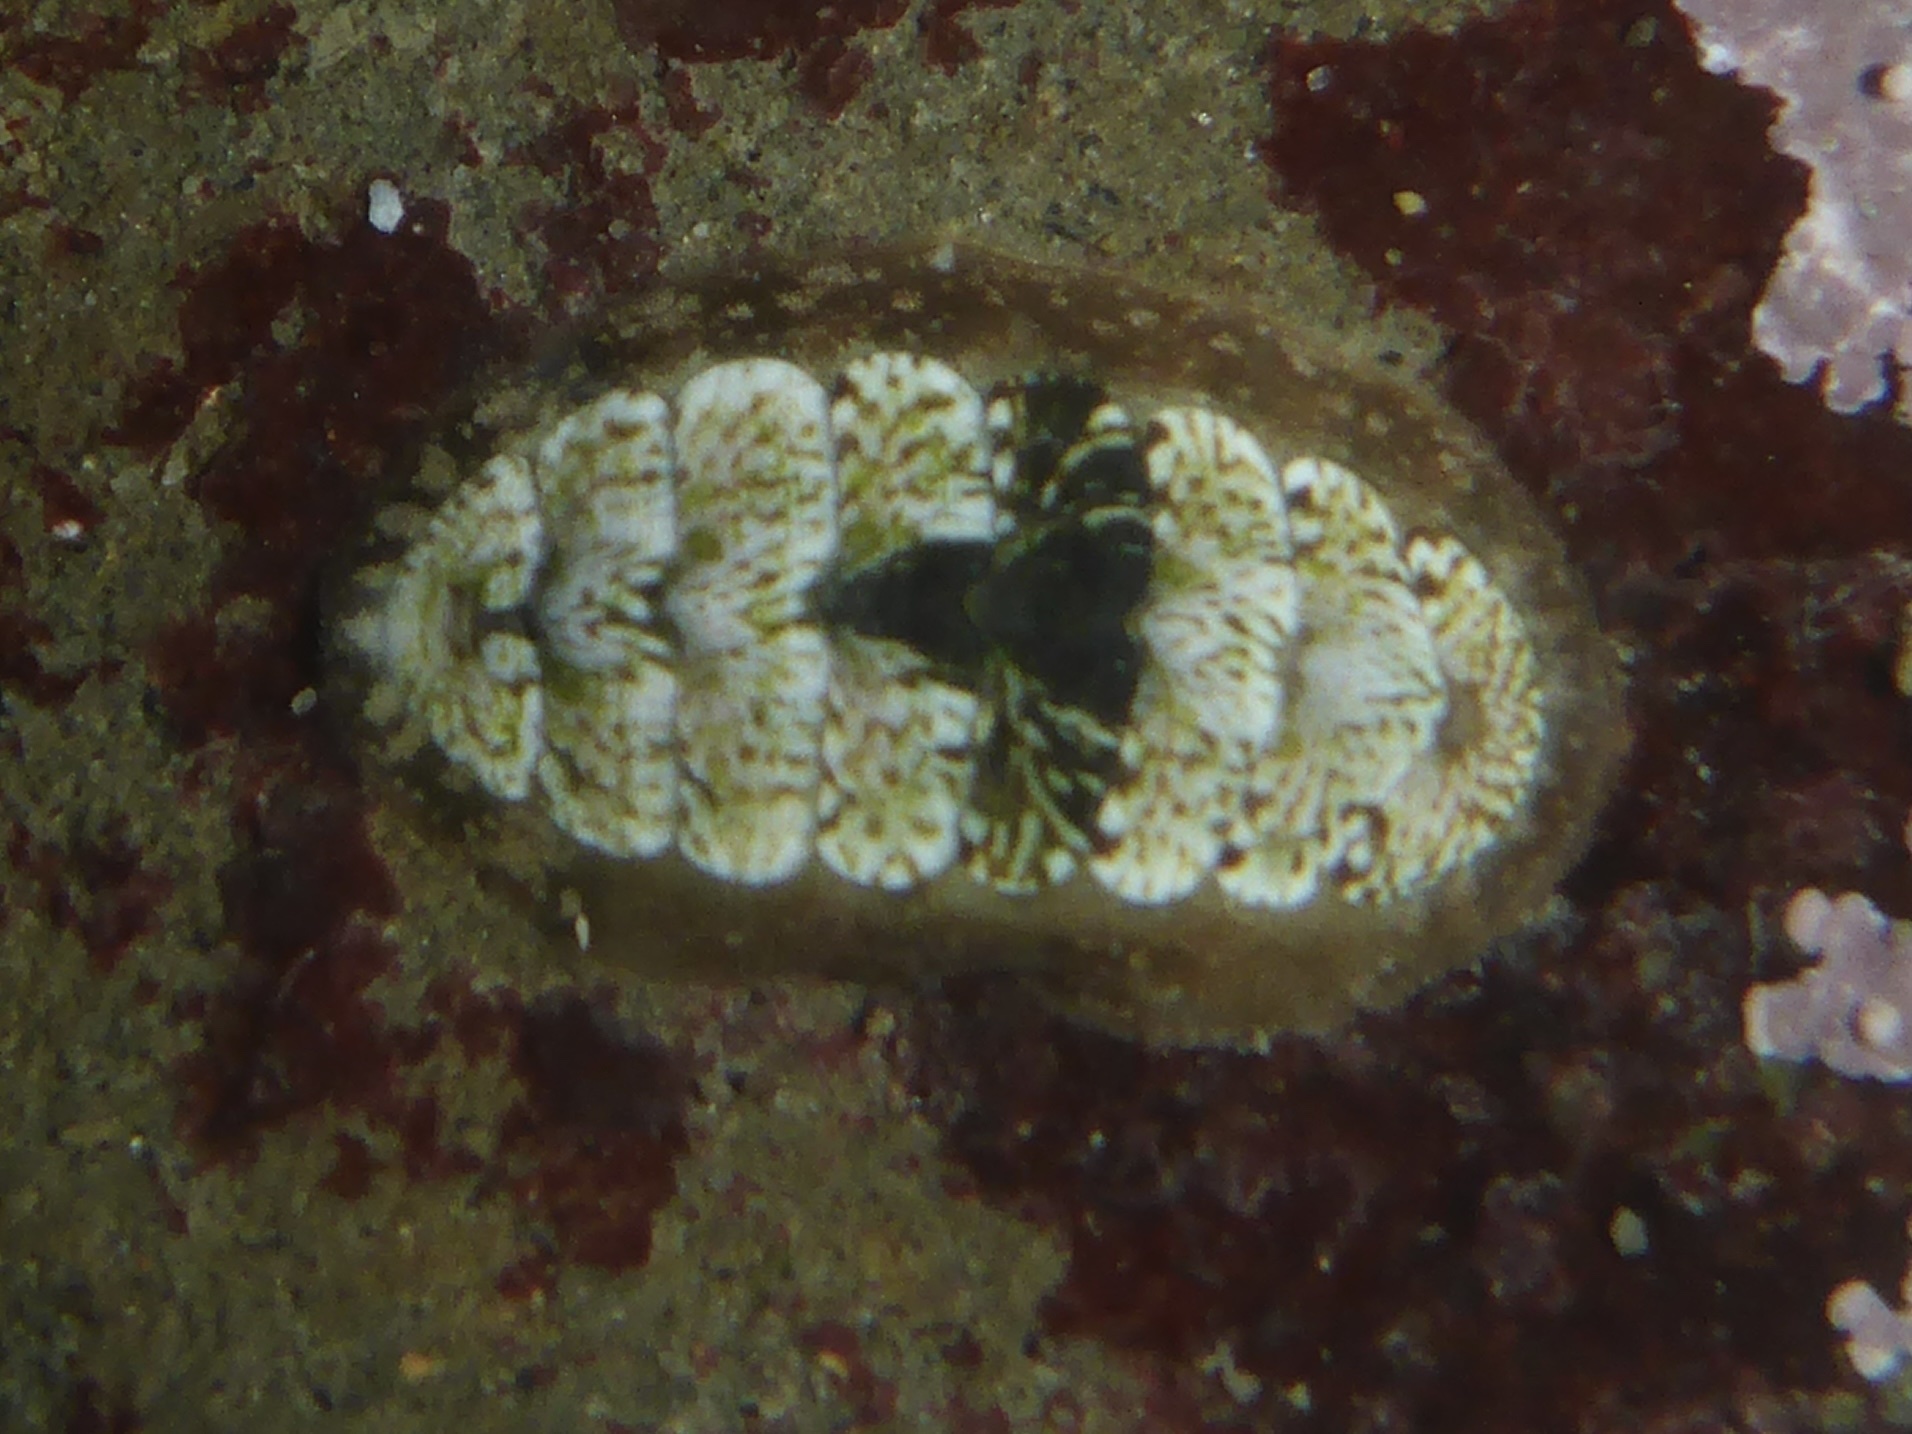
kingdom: Animalia
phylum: Mollusca
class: Polyplacophora
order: Chitonida
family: Tonicellidae
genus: Cyanoplax
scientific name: Cyanoplax dentiens
